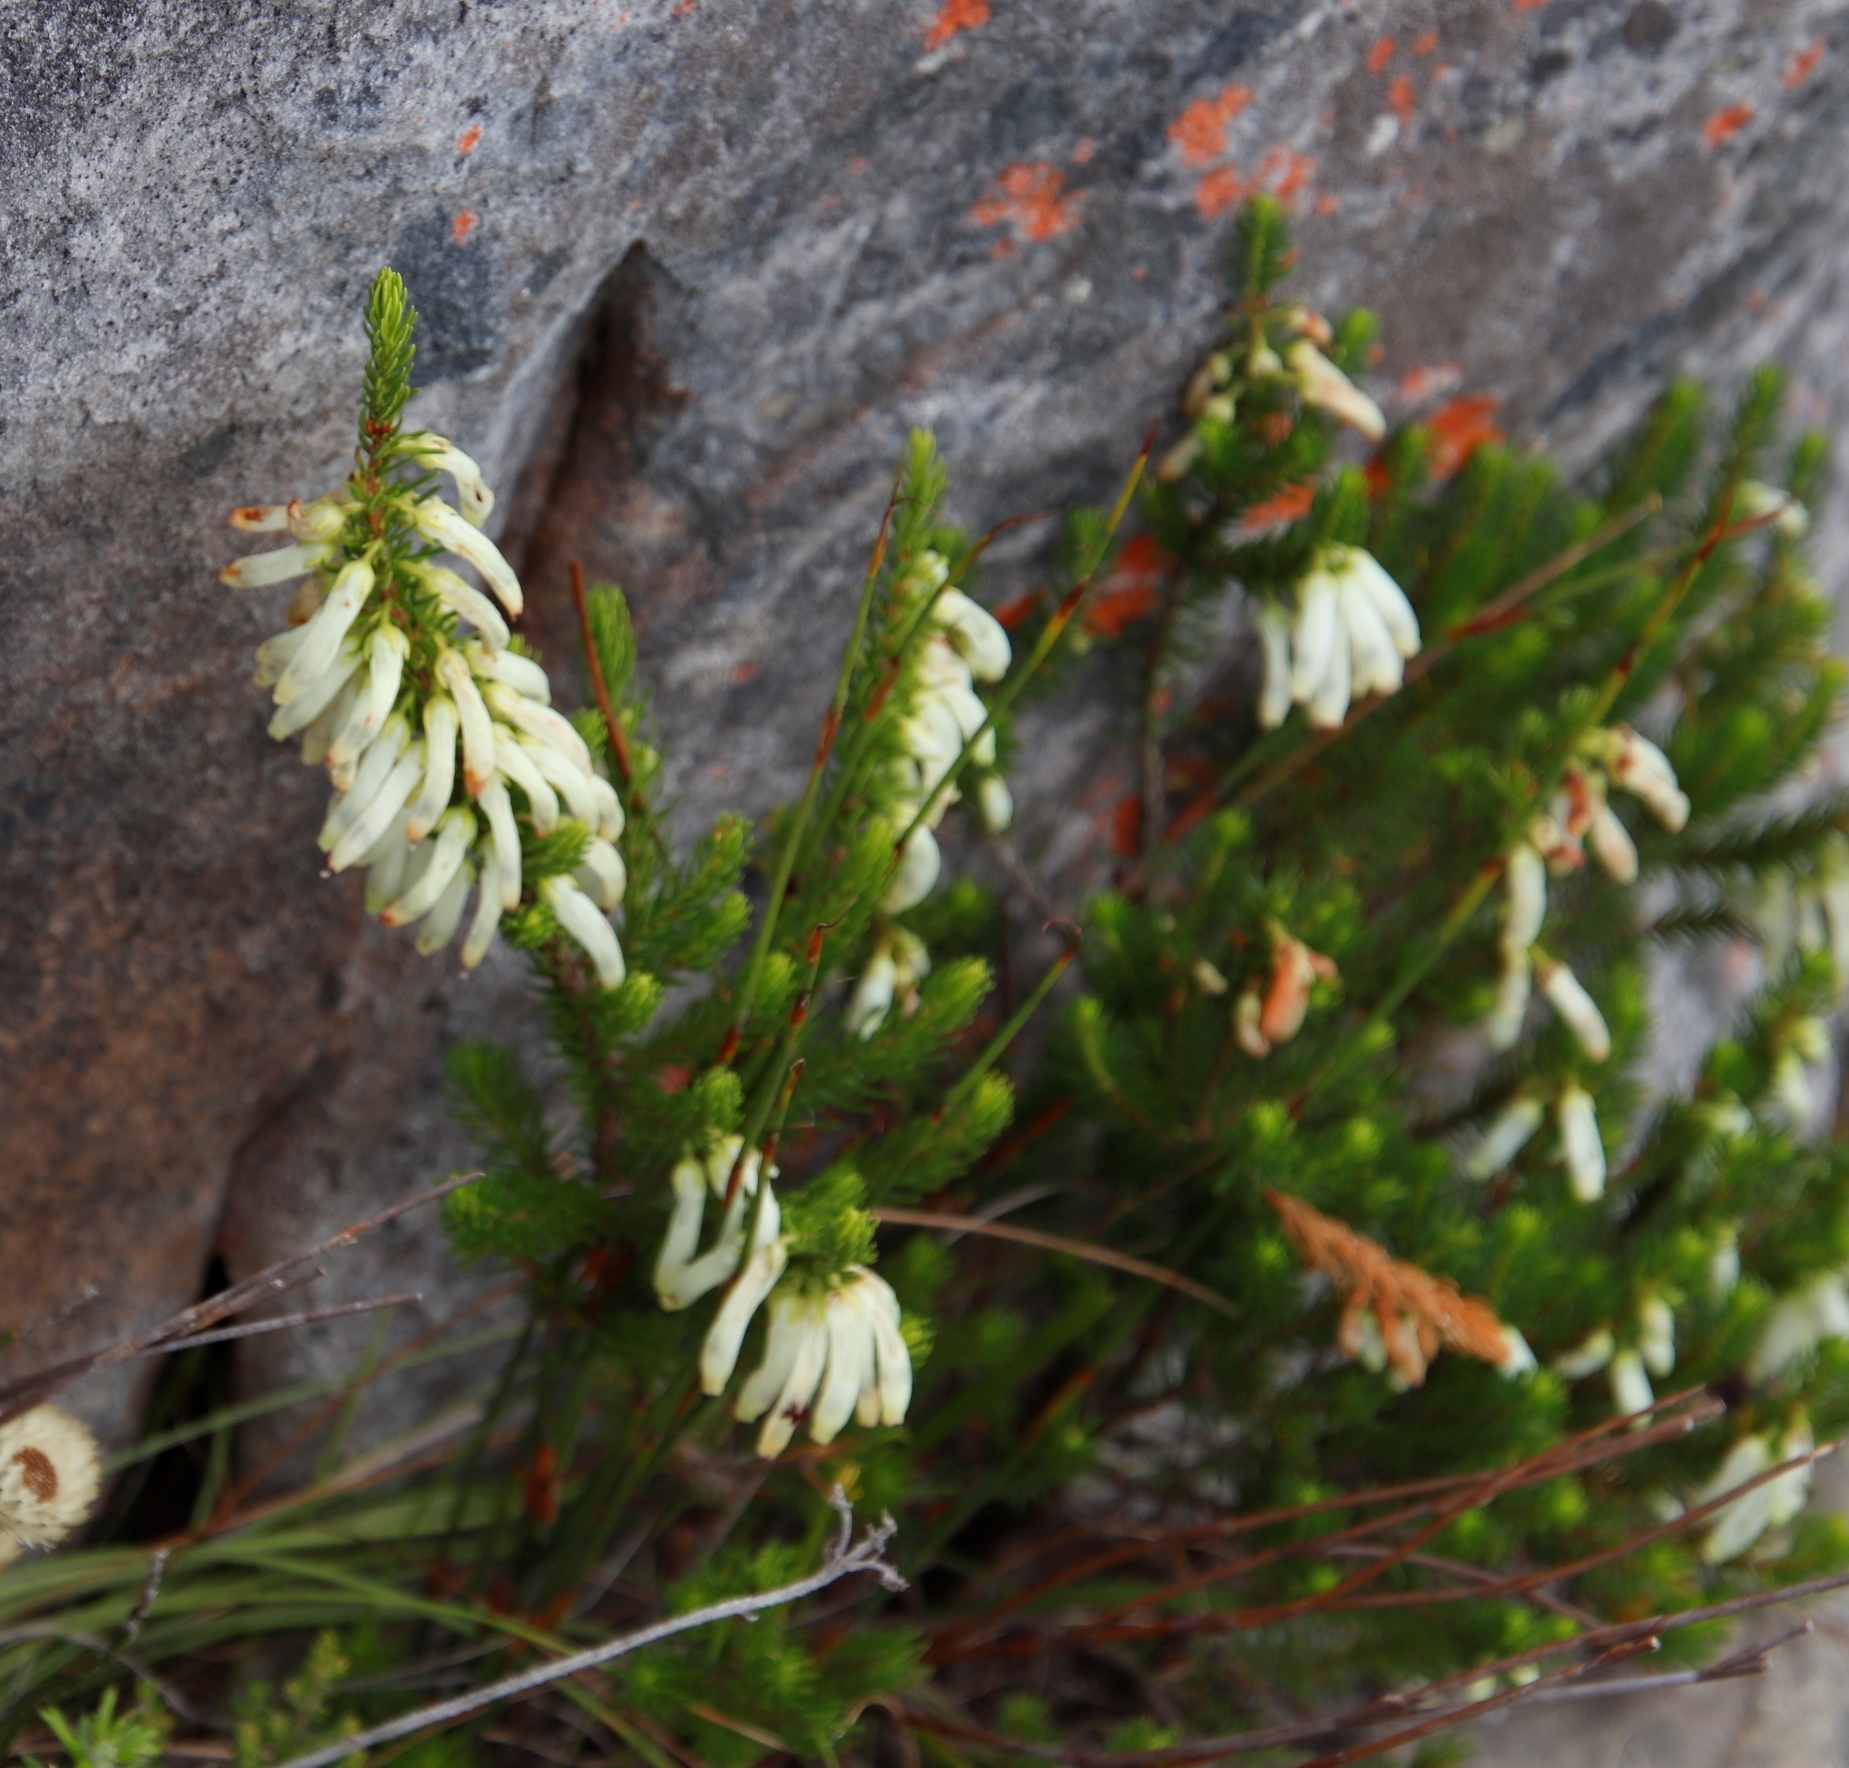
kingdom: Plantae
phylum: Tracheophyta
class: Magnoliopsida
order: Ericales
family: Ericaceae
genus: Erica
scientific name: Erica mammosa
